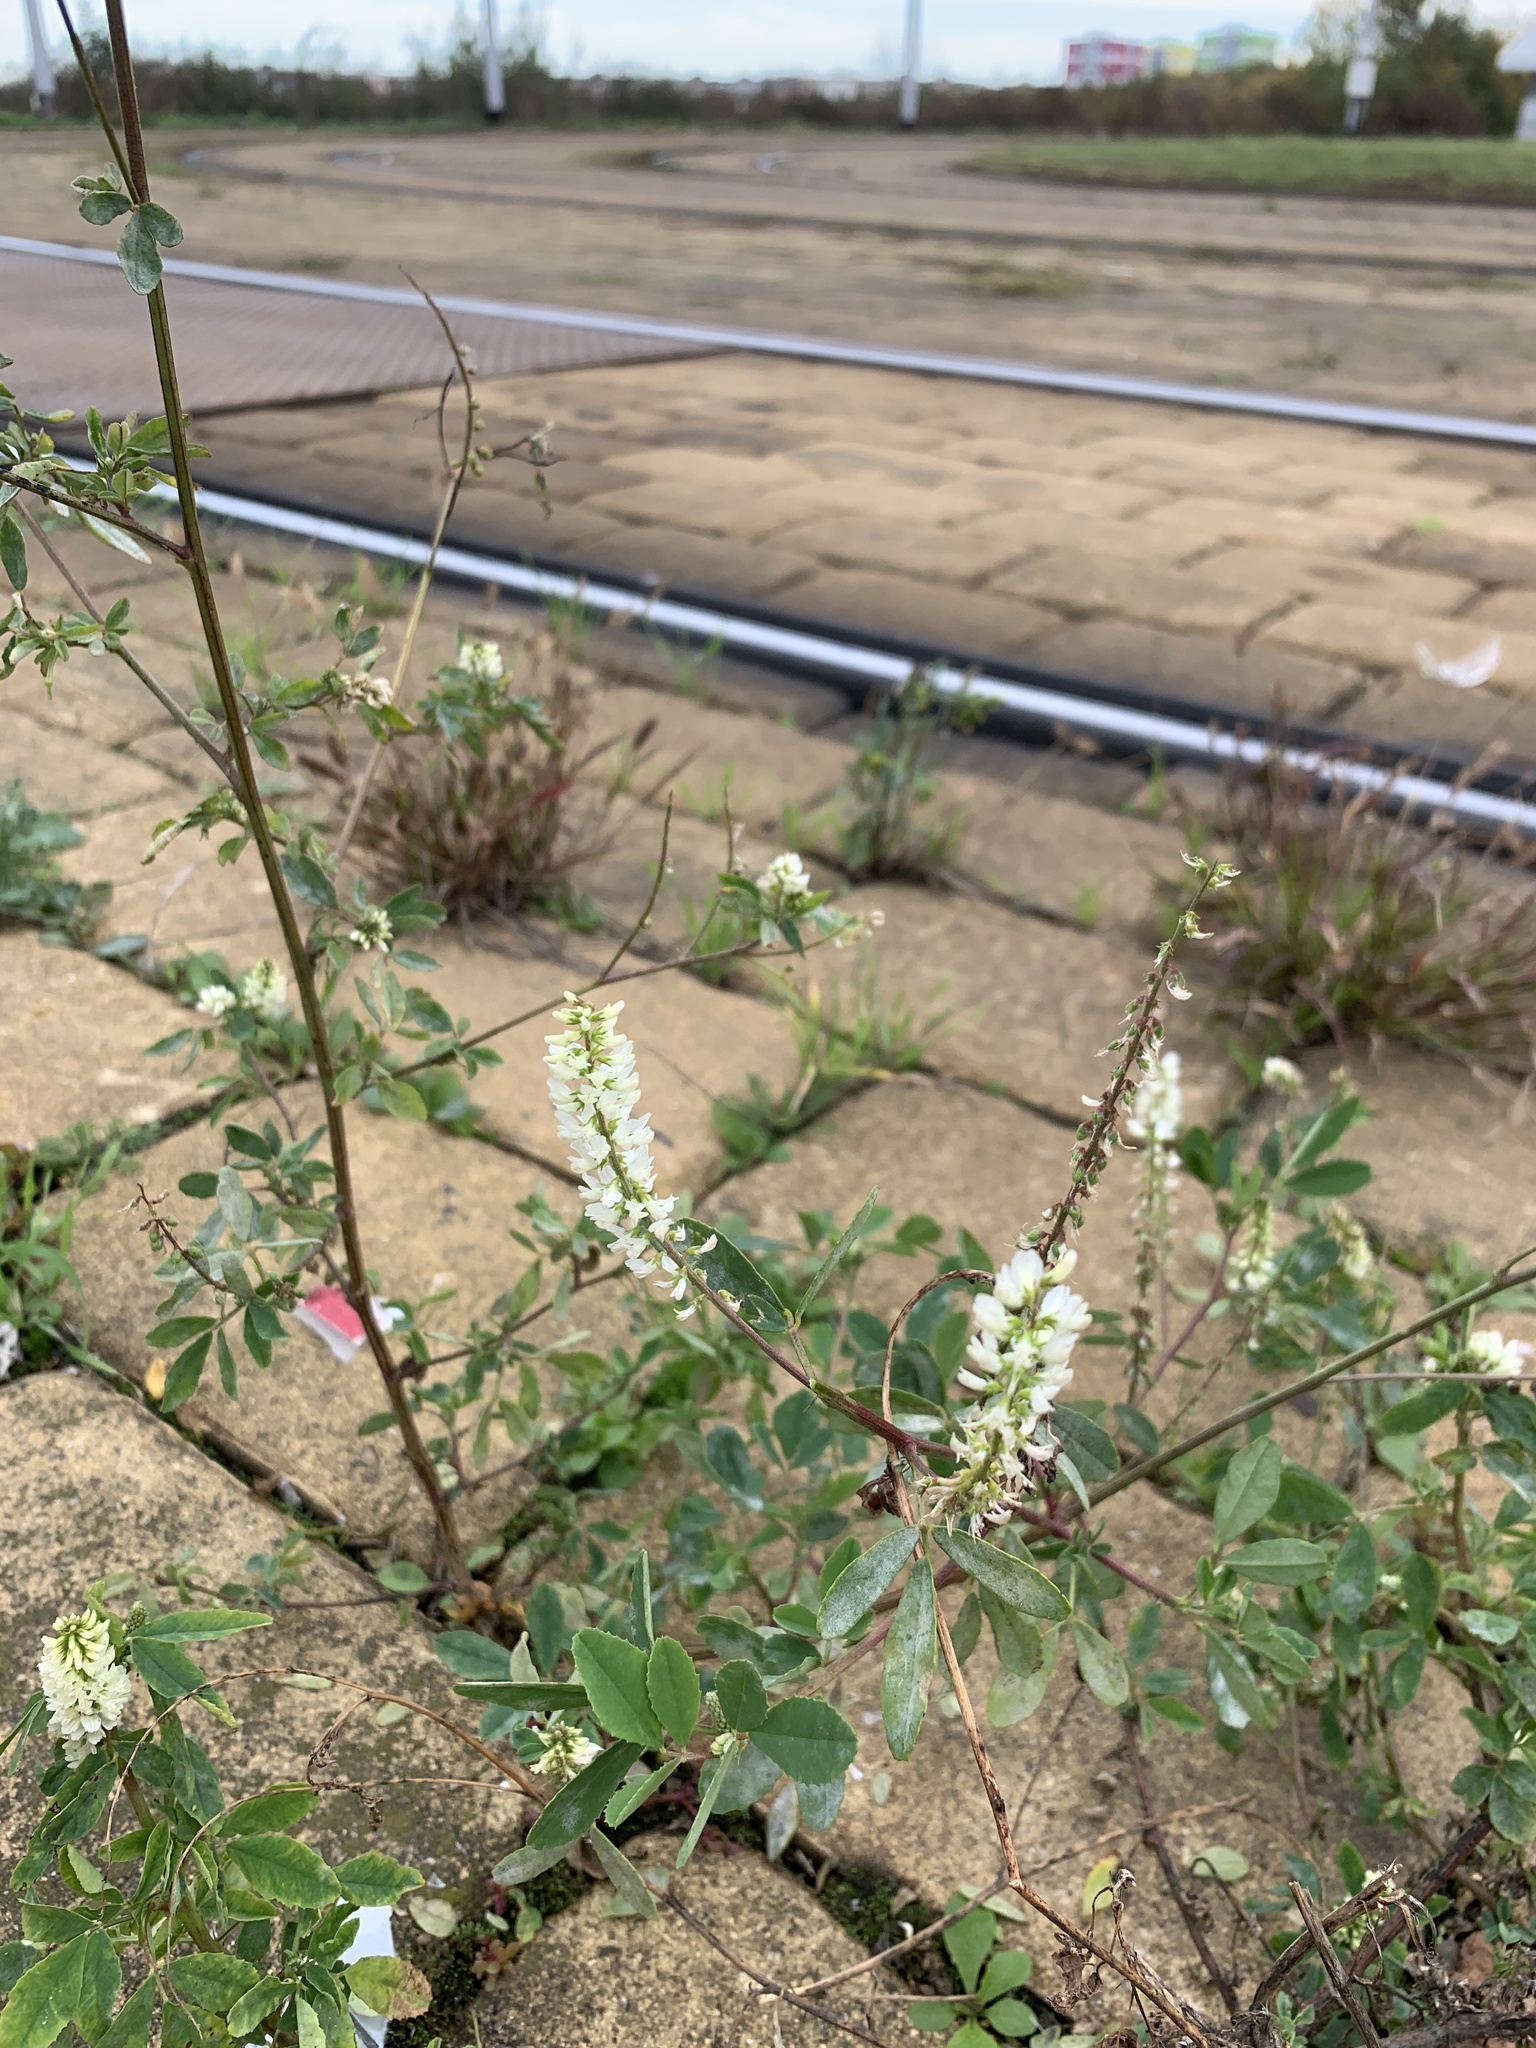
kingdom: Plantae
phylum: Tracheophyta
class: Magnoliopsida
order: Fabales
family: Fabaceae
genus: Melilotus
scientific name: Melilotus albus
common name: White melilot
